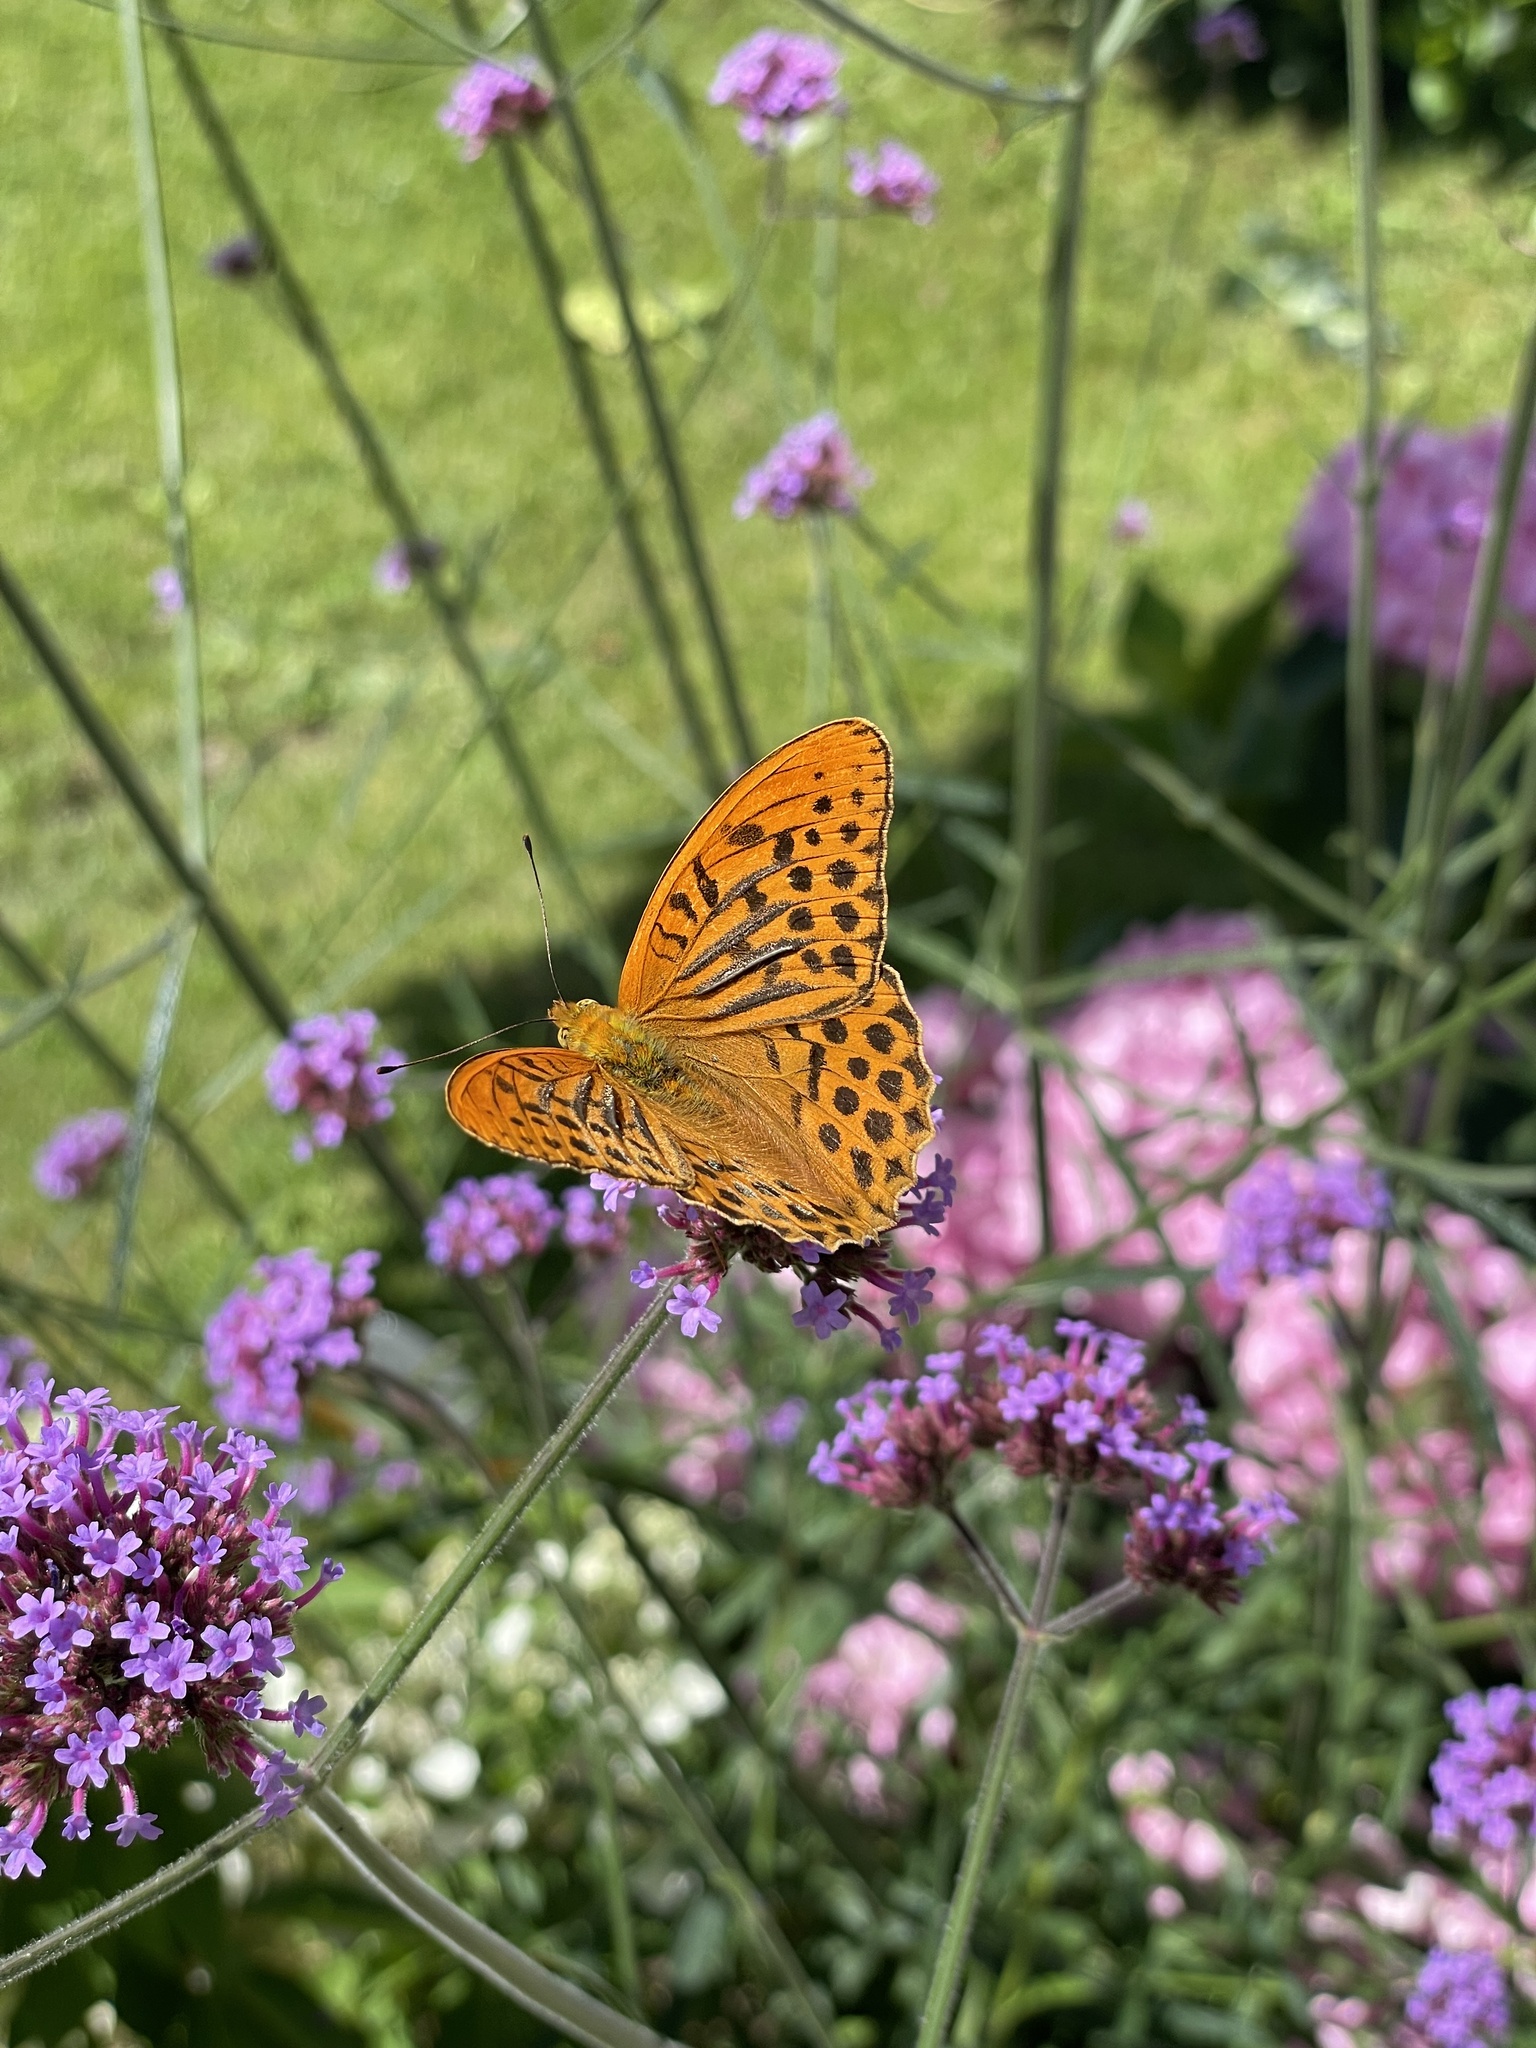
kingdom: Animalia
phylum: Arthropoda
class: Insecta
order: Lepidoptera
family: Nymphalidae
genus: Argynnis
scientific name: Argynnis paphia
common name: Silver-washed fritillary
